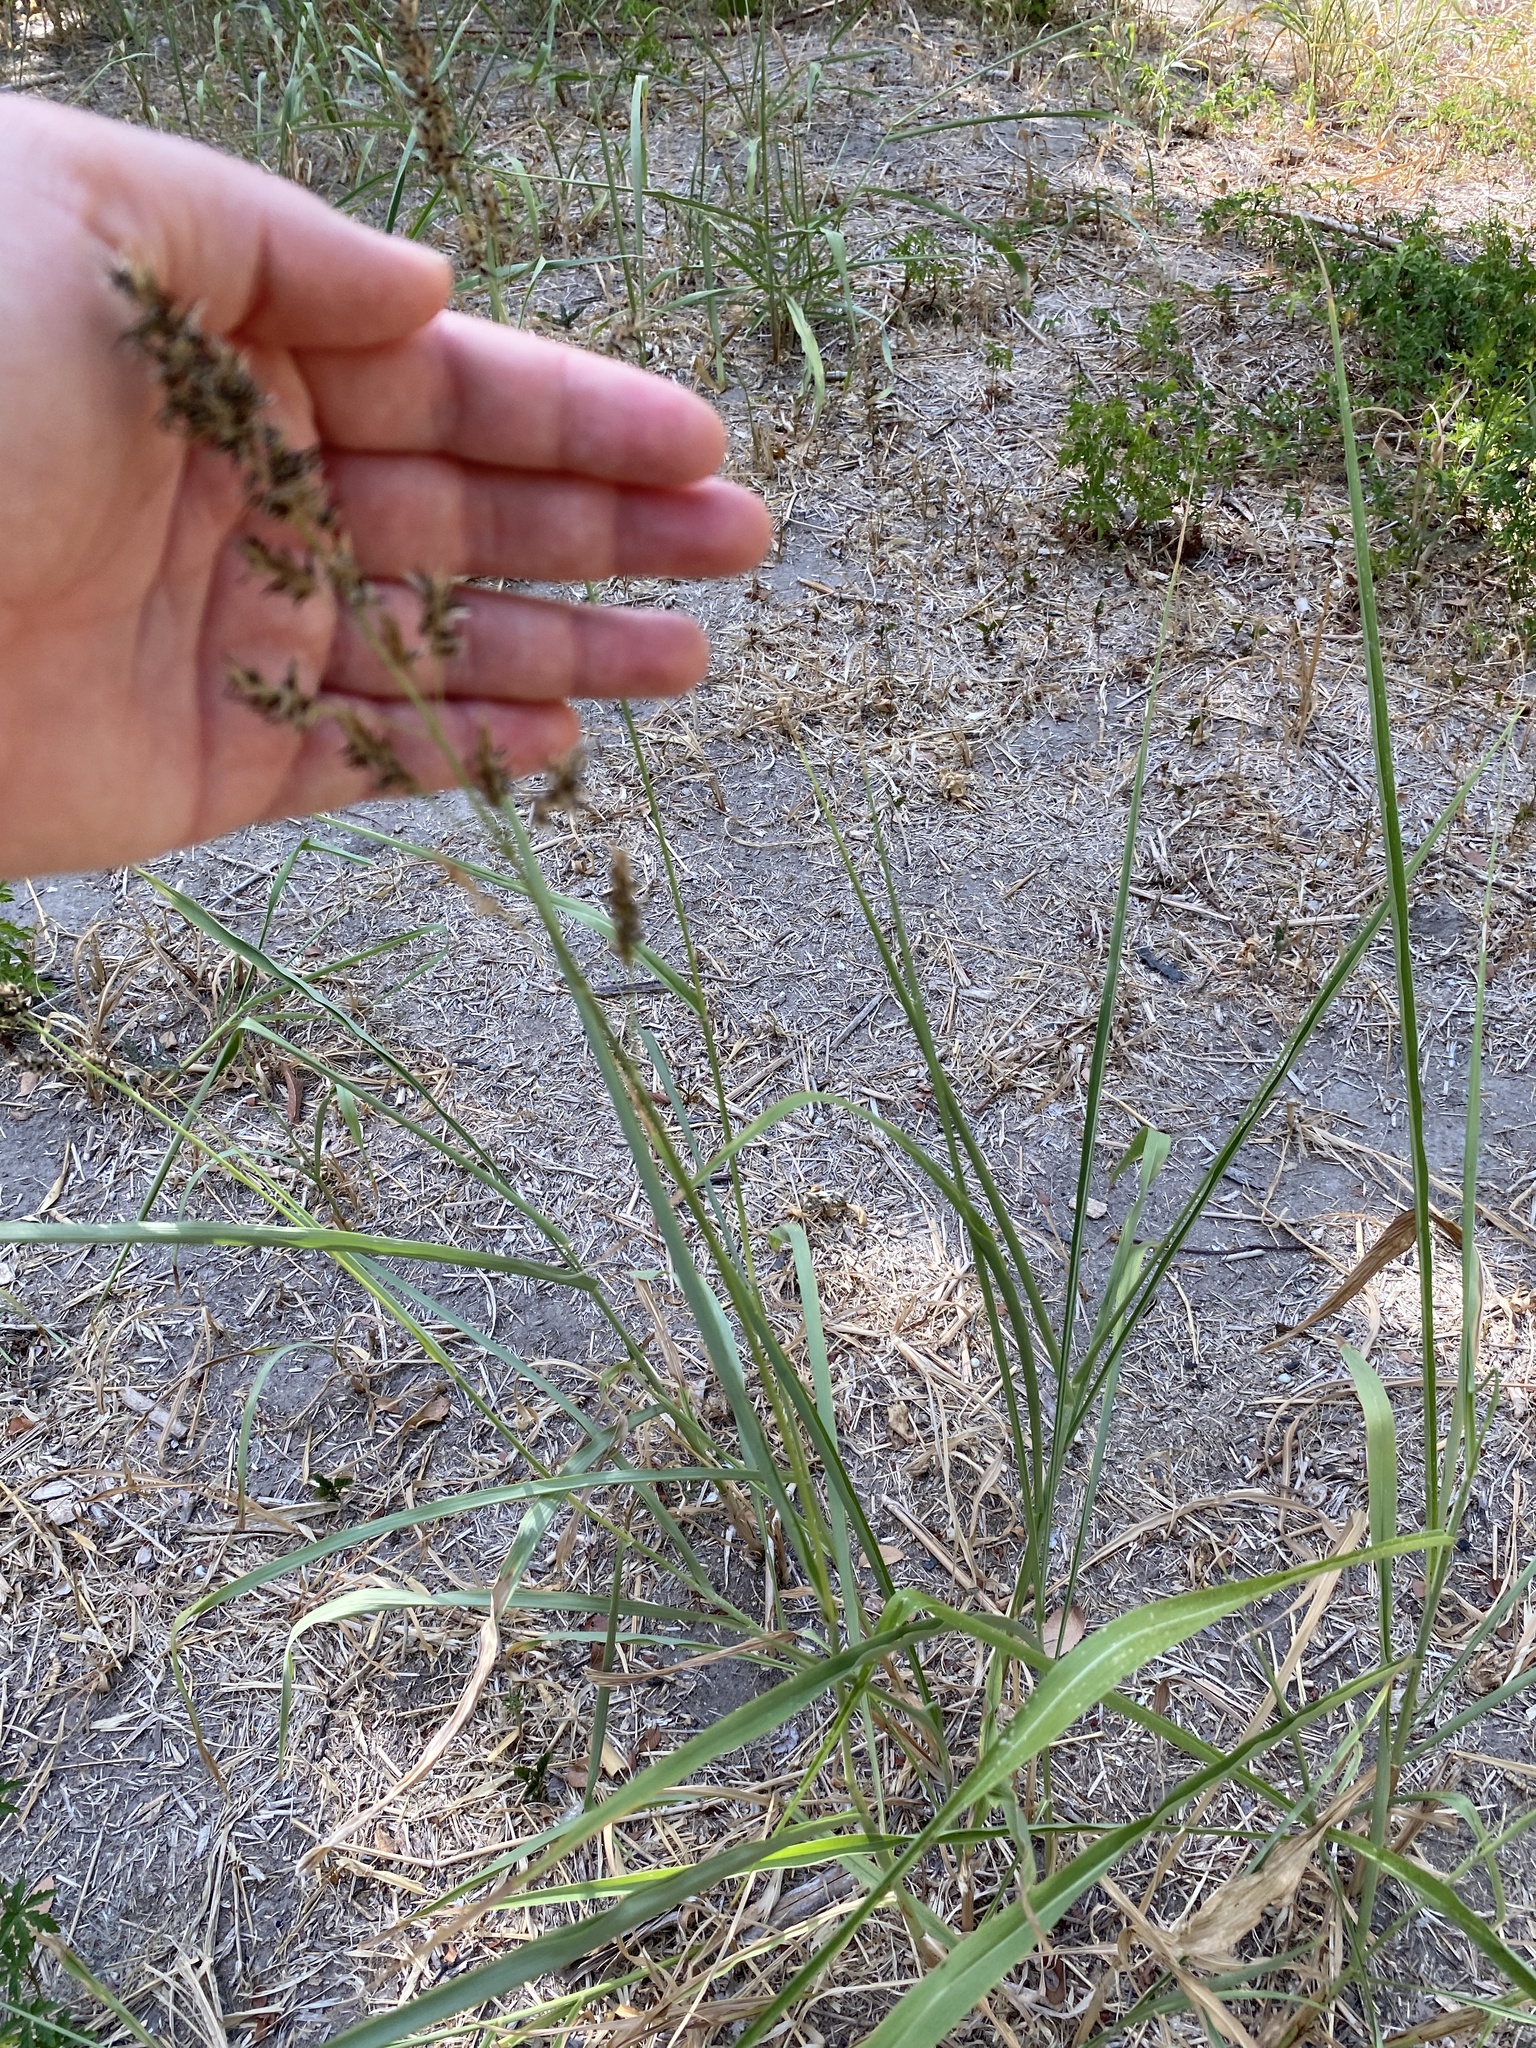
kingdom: Fungi
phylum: Basidiomycota
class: Ustilaginomycetes
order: Ustilaginales
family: Ustilaginaceae
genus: Sporisorium
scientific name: Sporisorium cruentum
